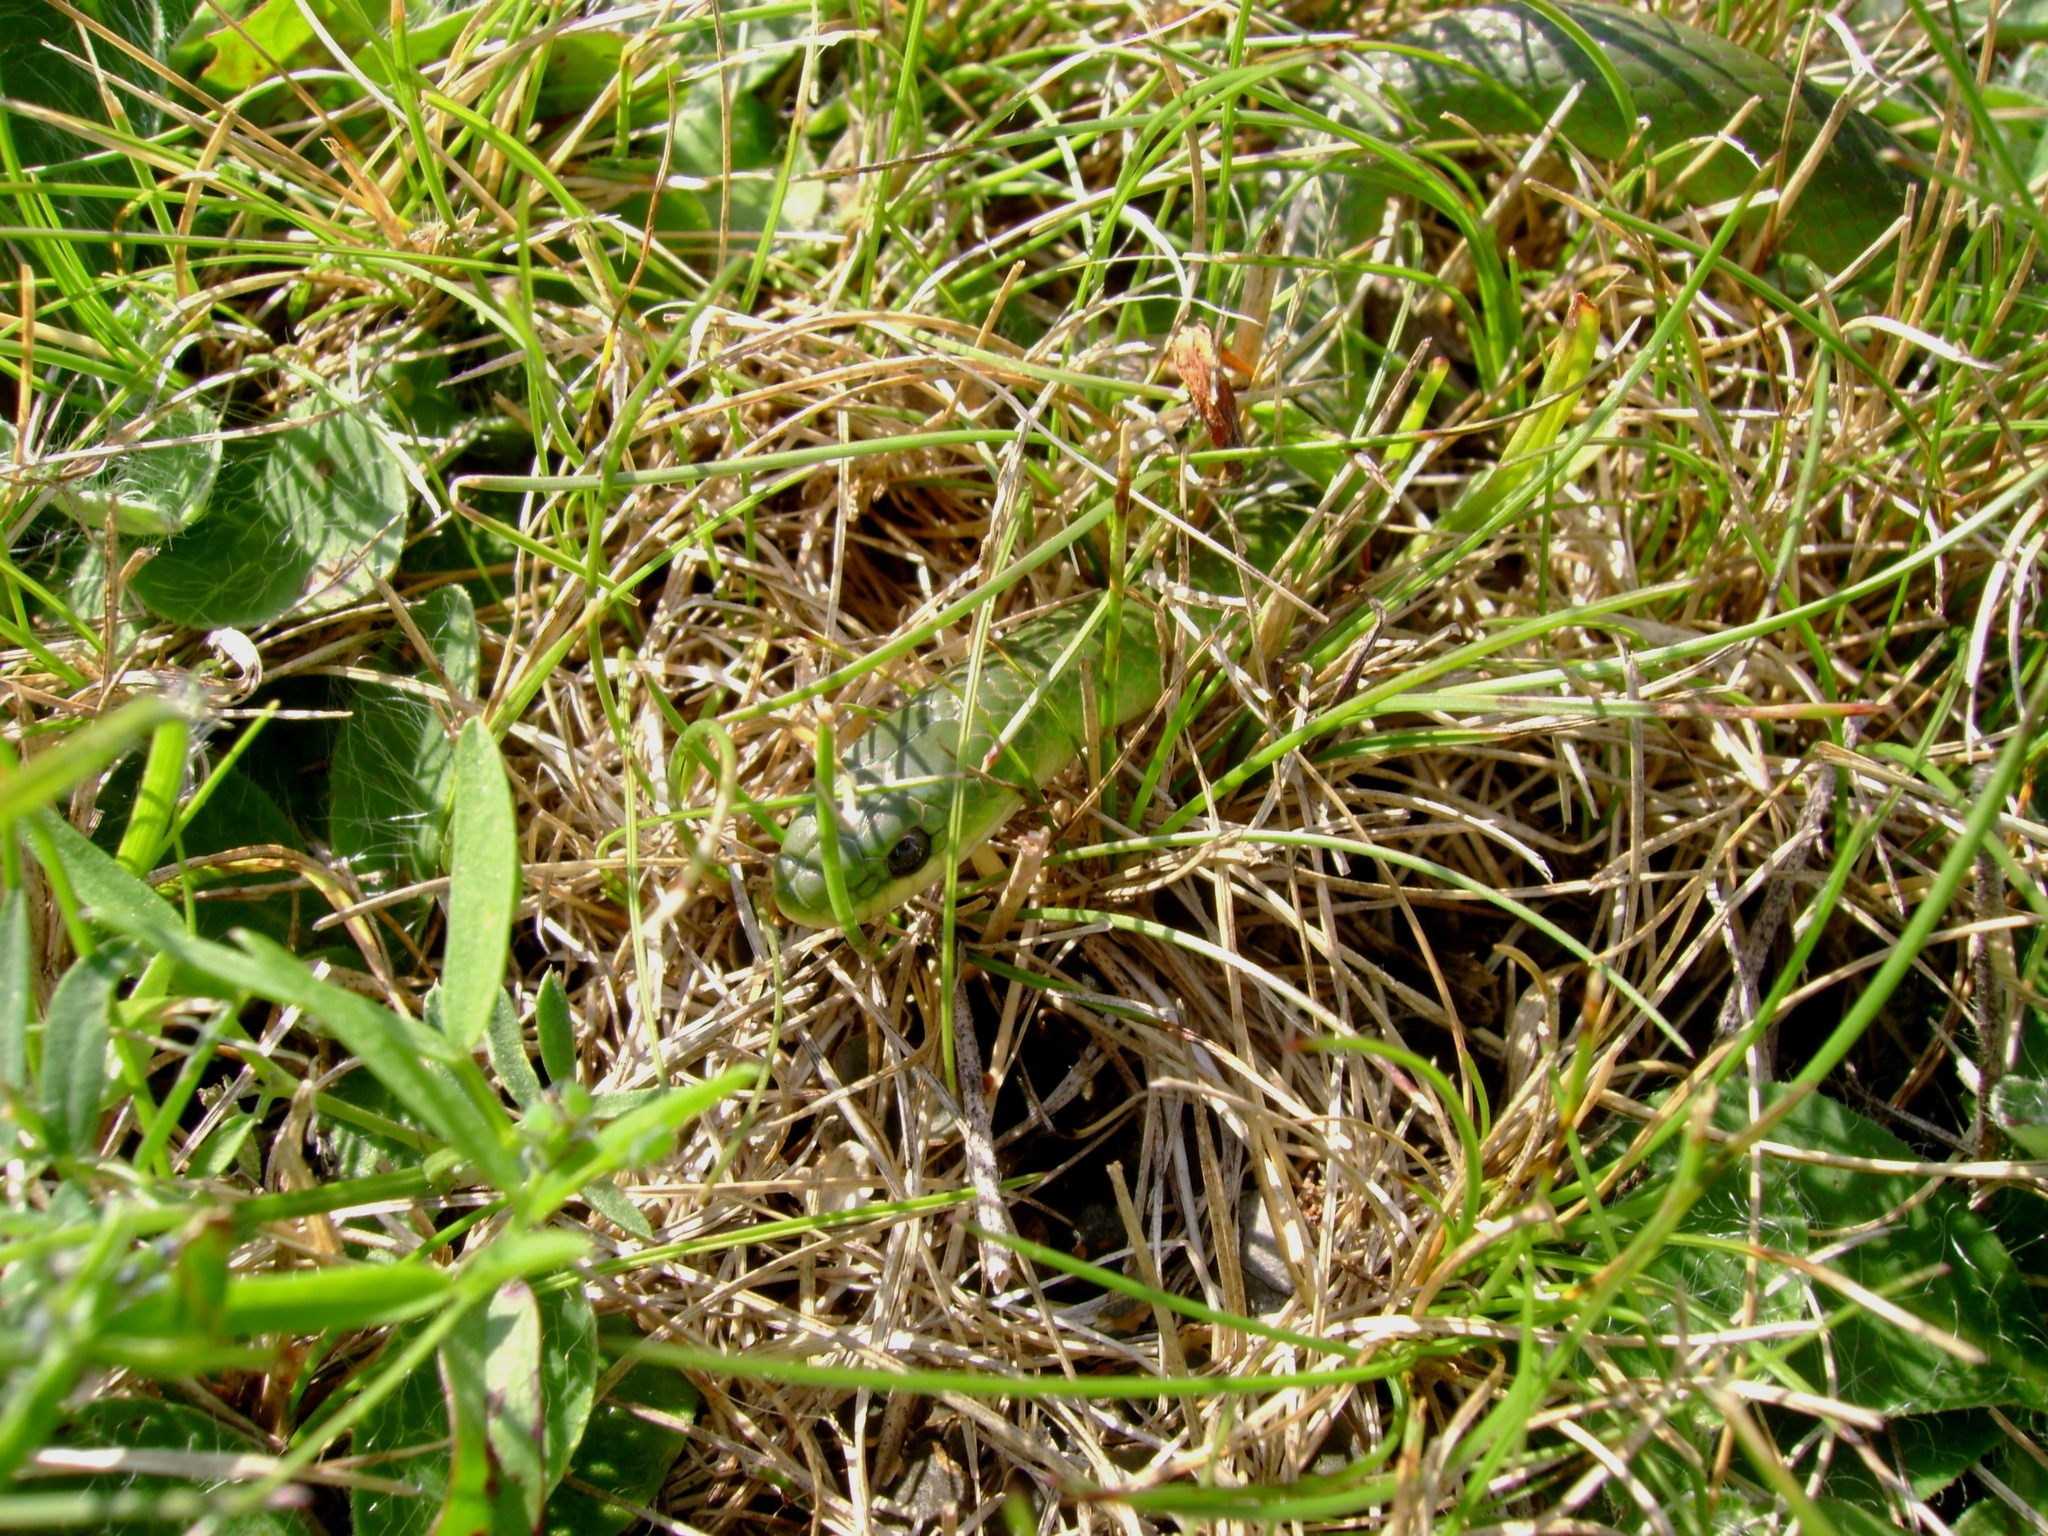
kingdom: Animalia
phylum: Chordata
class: Squamata
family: Colubridae
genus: Opheodrys
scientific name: Opheodrys vernalis
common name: Smooth green snake
